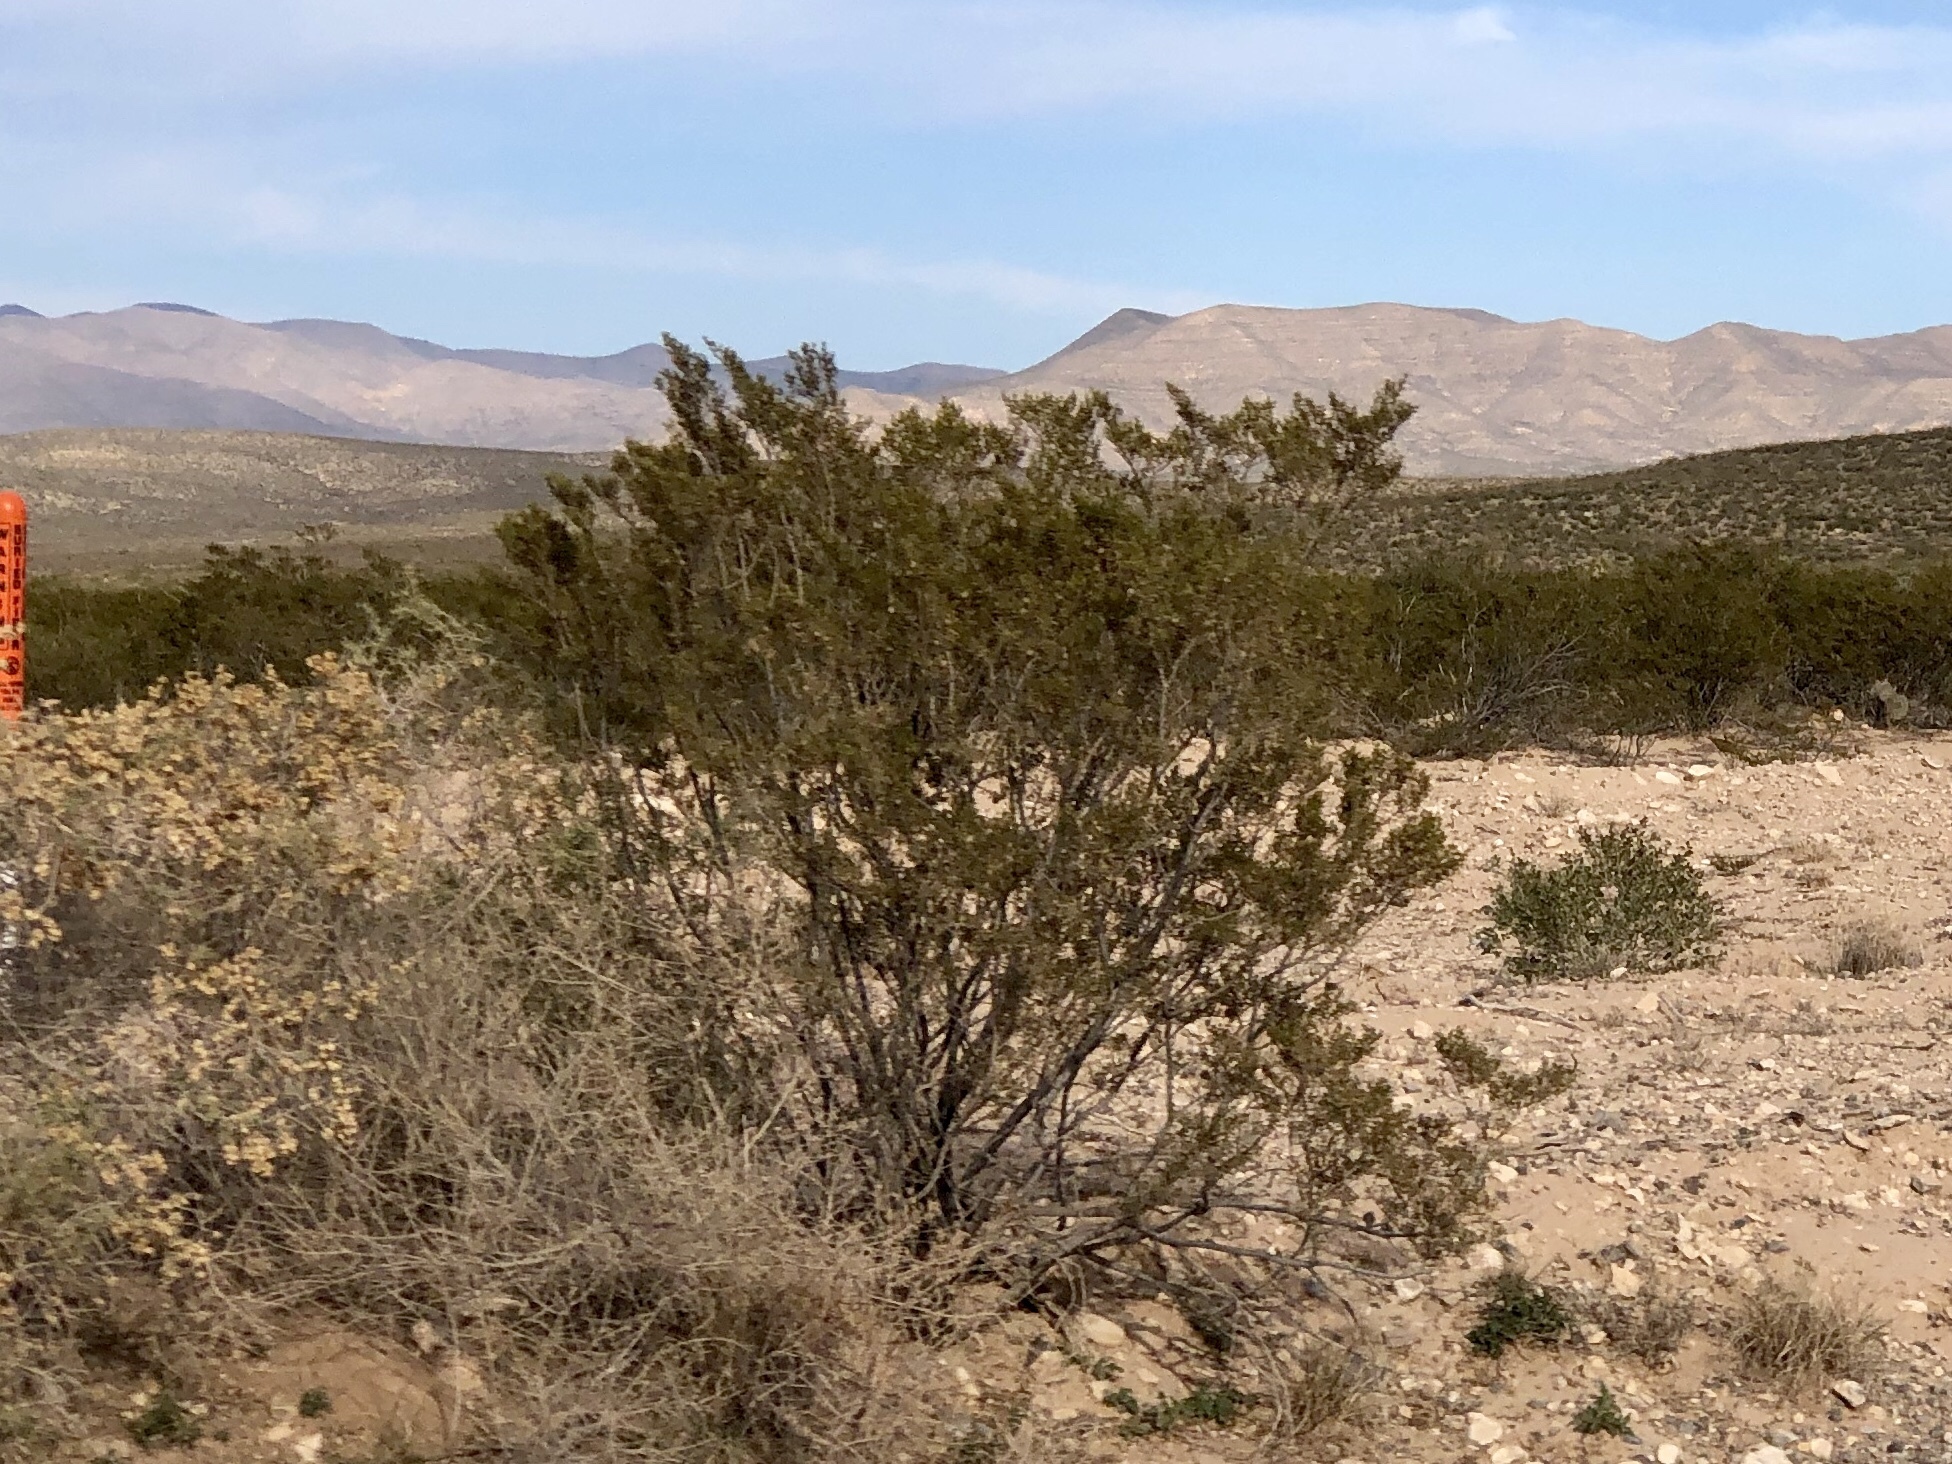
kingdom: Plantae
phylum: Tracheophyta
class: Magnoliopsida
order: Zygophyllales
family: Zygophyllaceae
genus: Larrea
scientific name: Larrea tridentata
